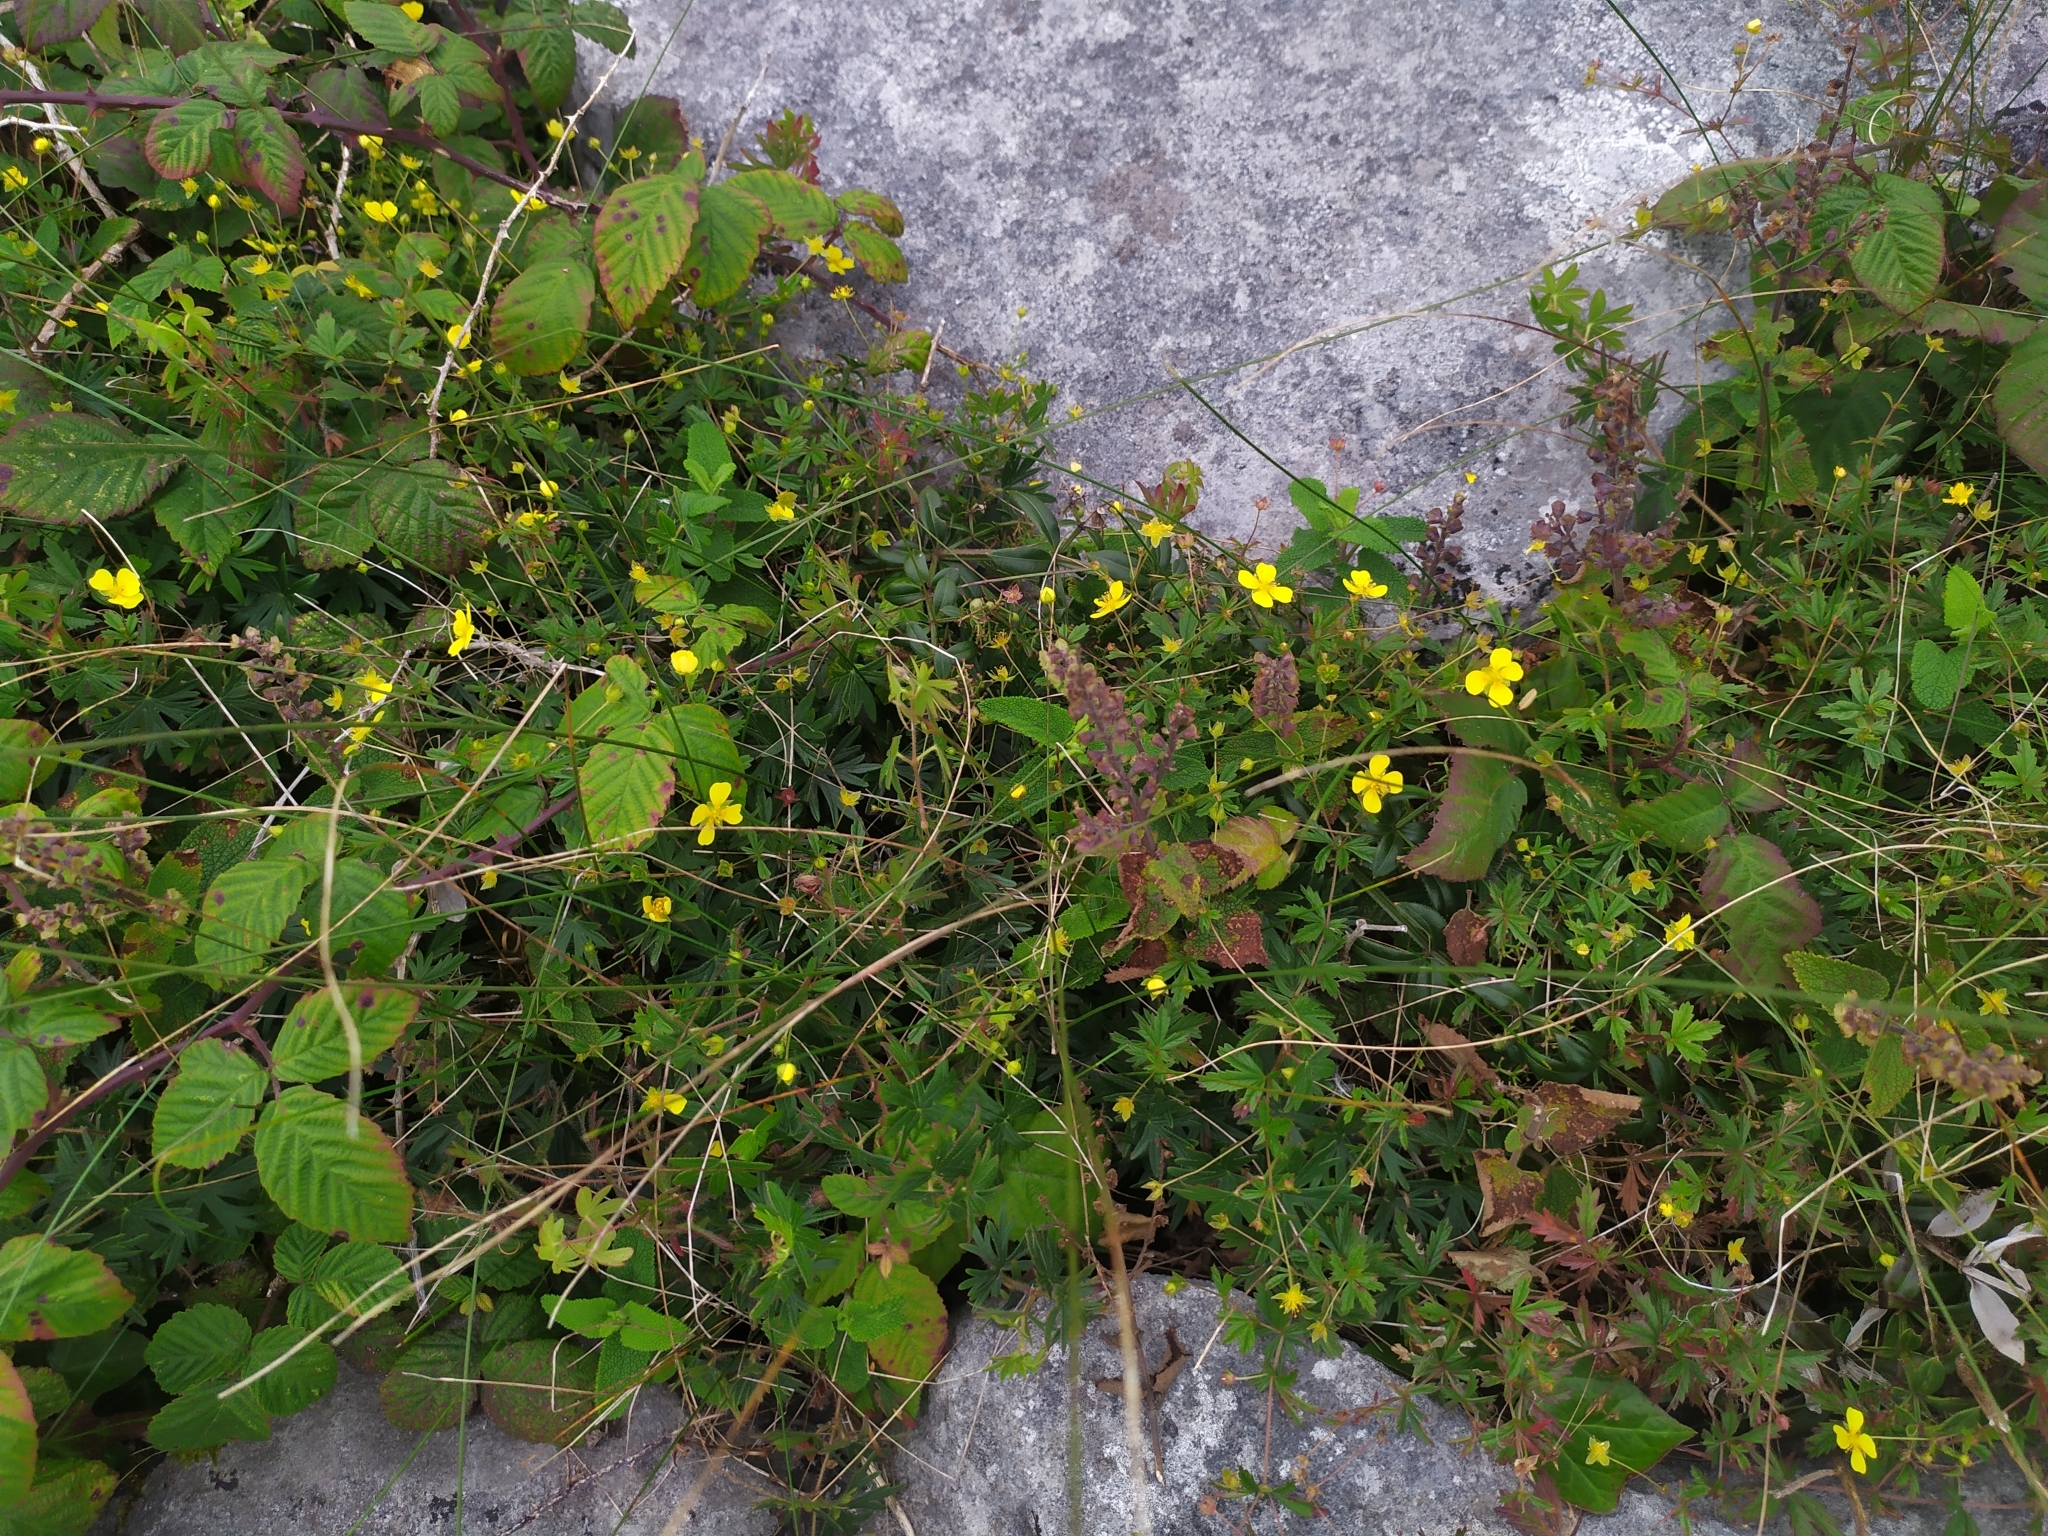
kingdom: Plantae
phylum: Tracheophyta
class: Magnoliopsida
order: Rosales
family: Rosaceae
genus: Potentilla
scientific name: Potentilla erecta
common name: Tormentil
